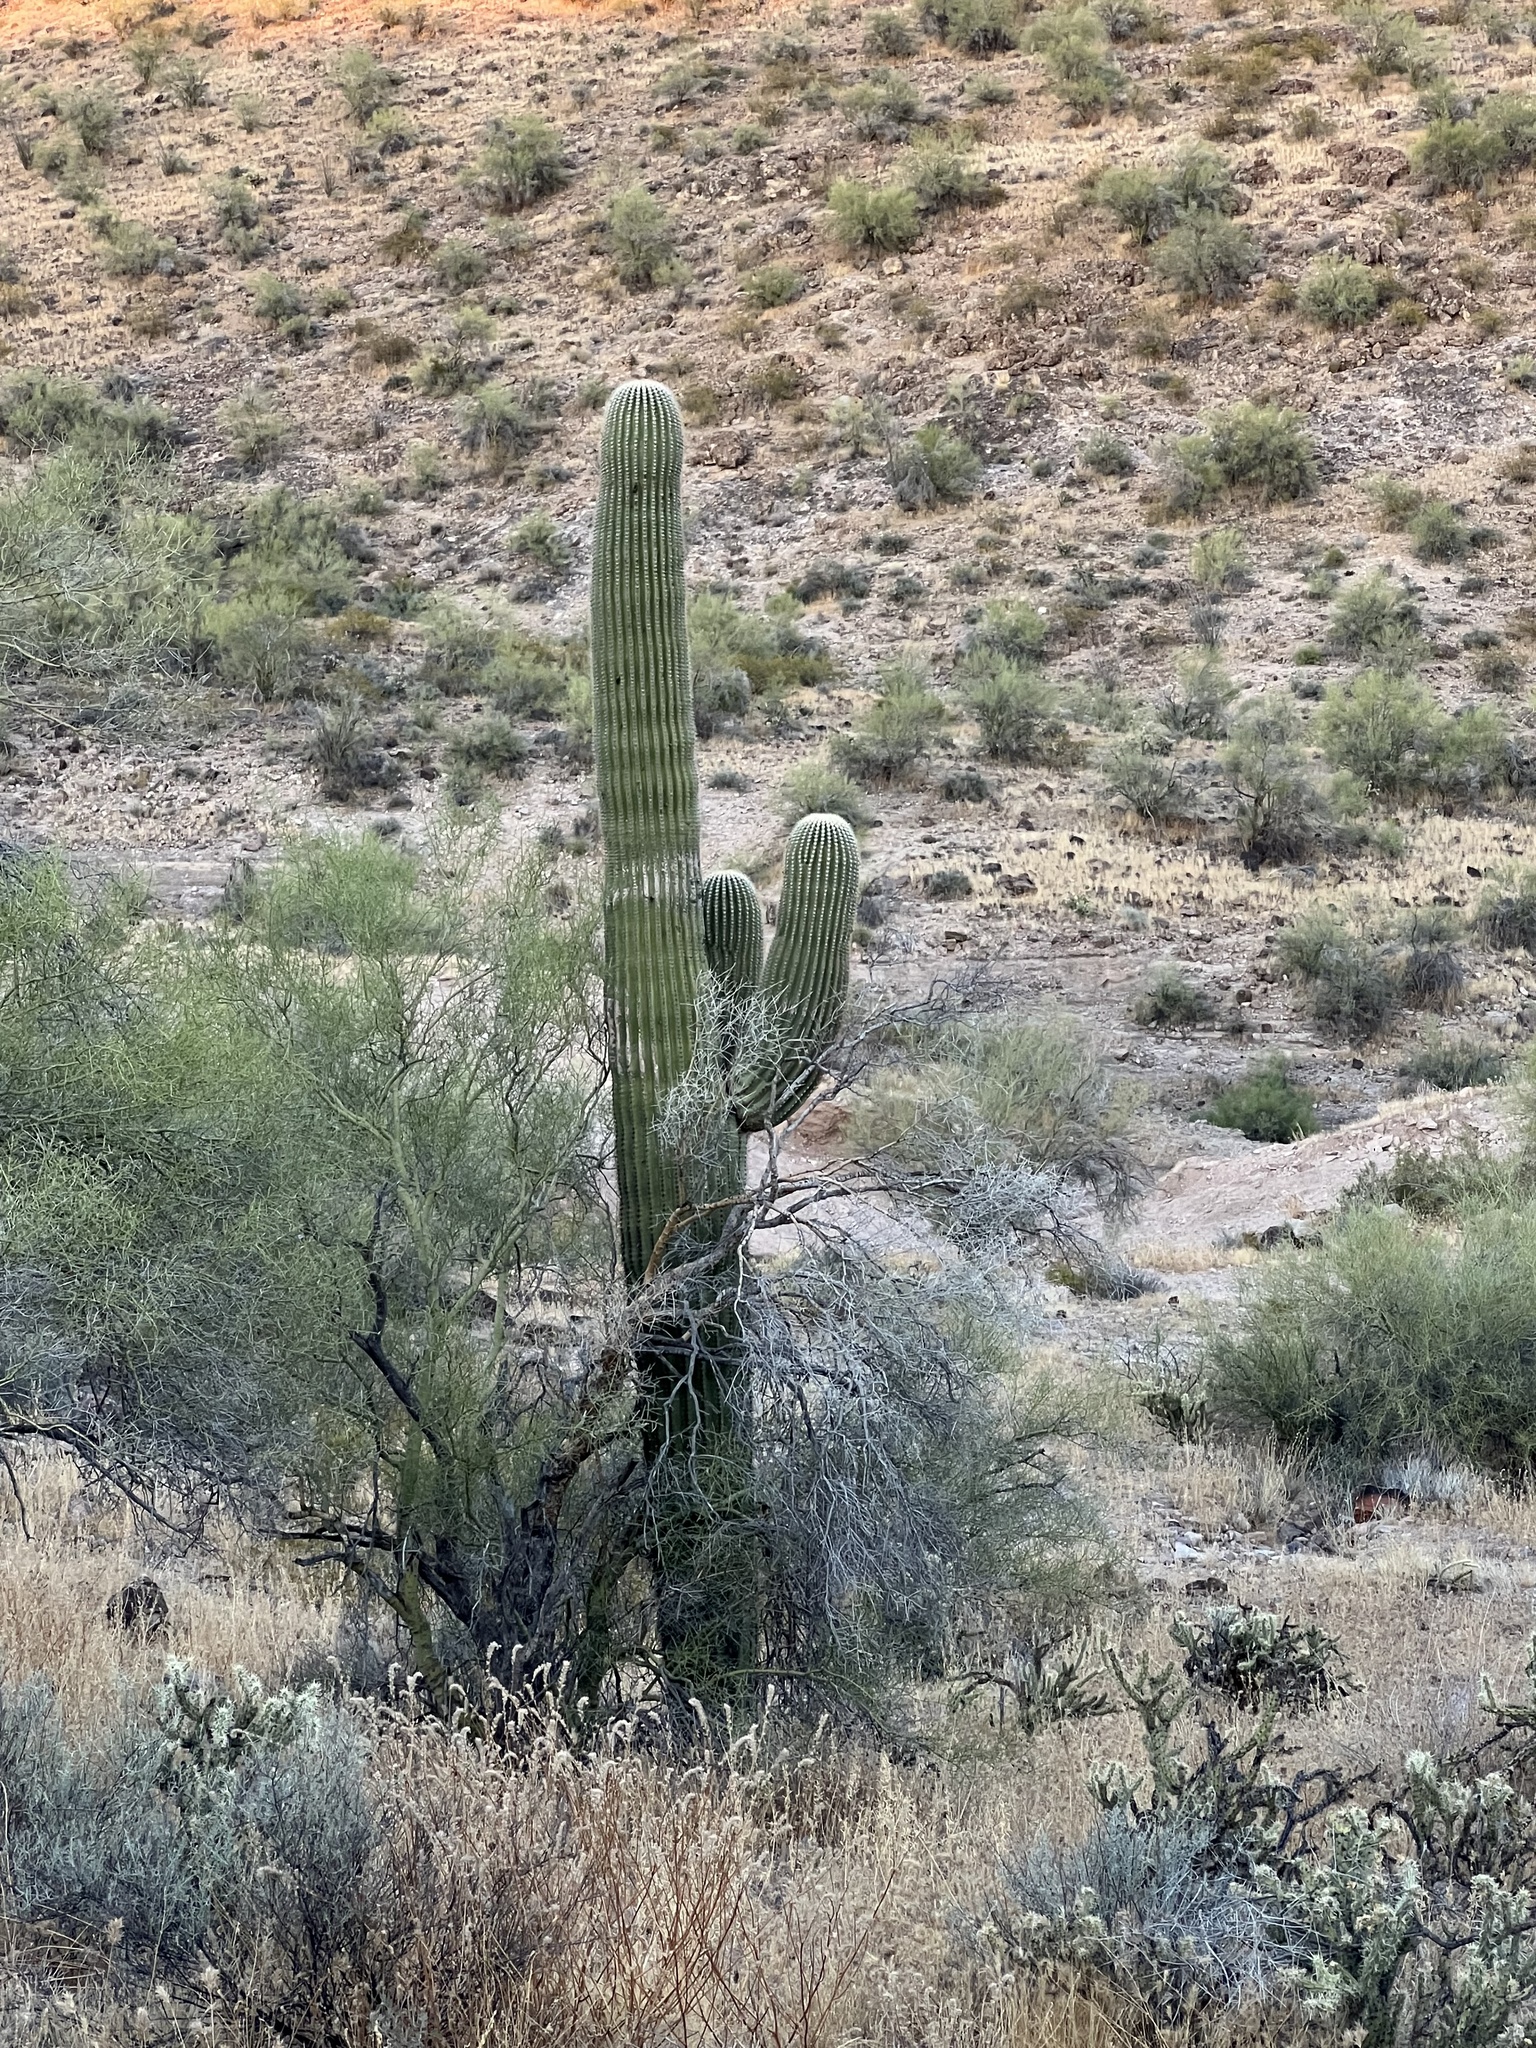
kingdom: Plantae
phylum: Tracheophyta
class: Magnoliopsida
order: Caryophyllales
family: Cactaceae
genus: Carnegiea
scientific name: Carnegiea gigantea
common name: Saguaro
